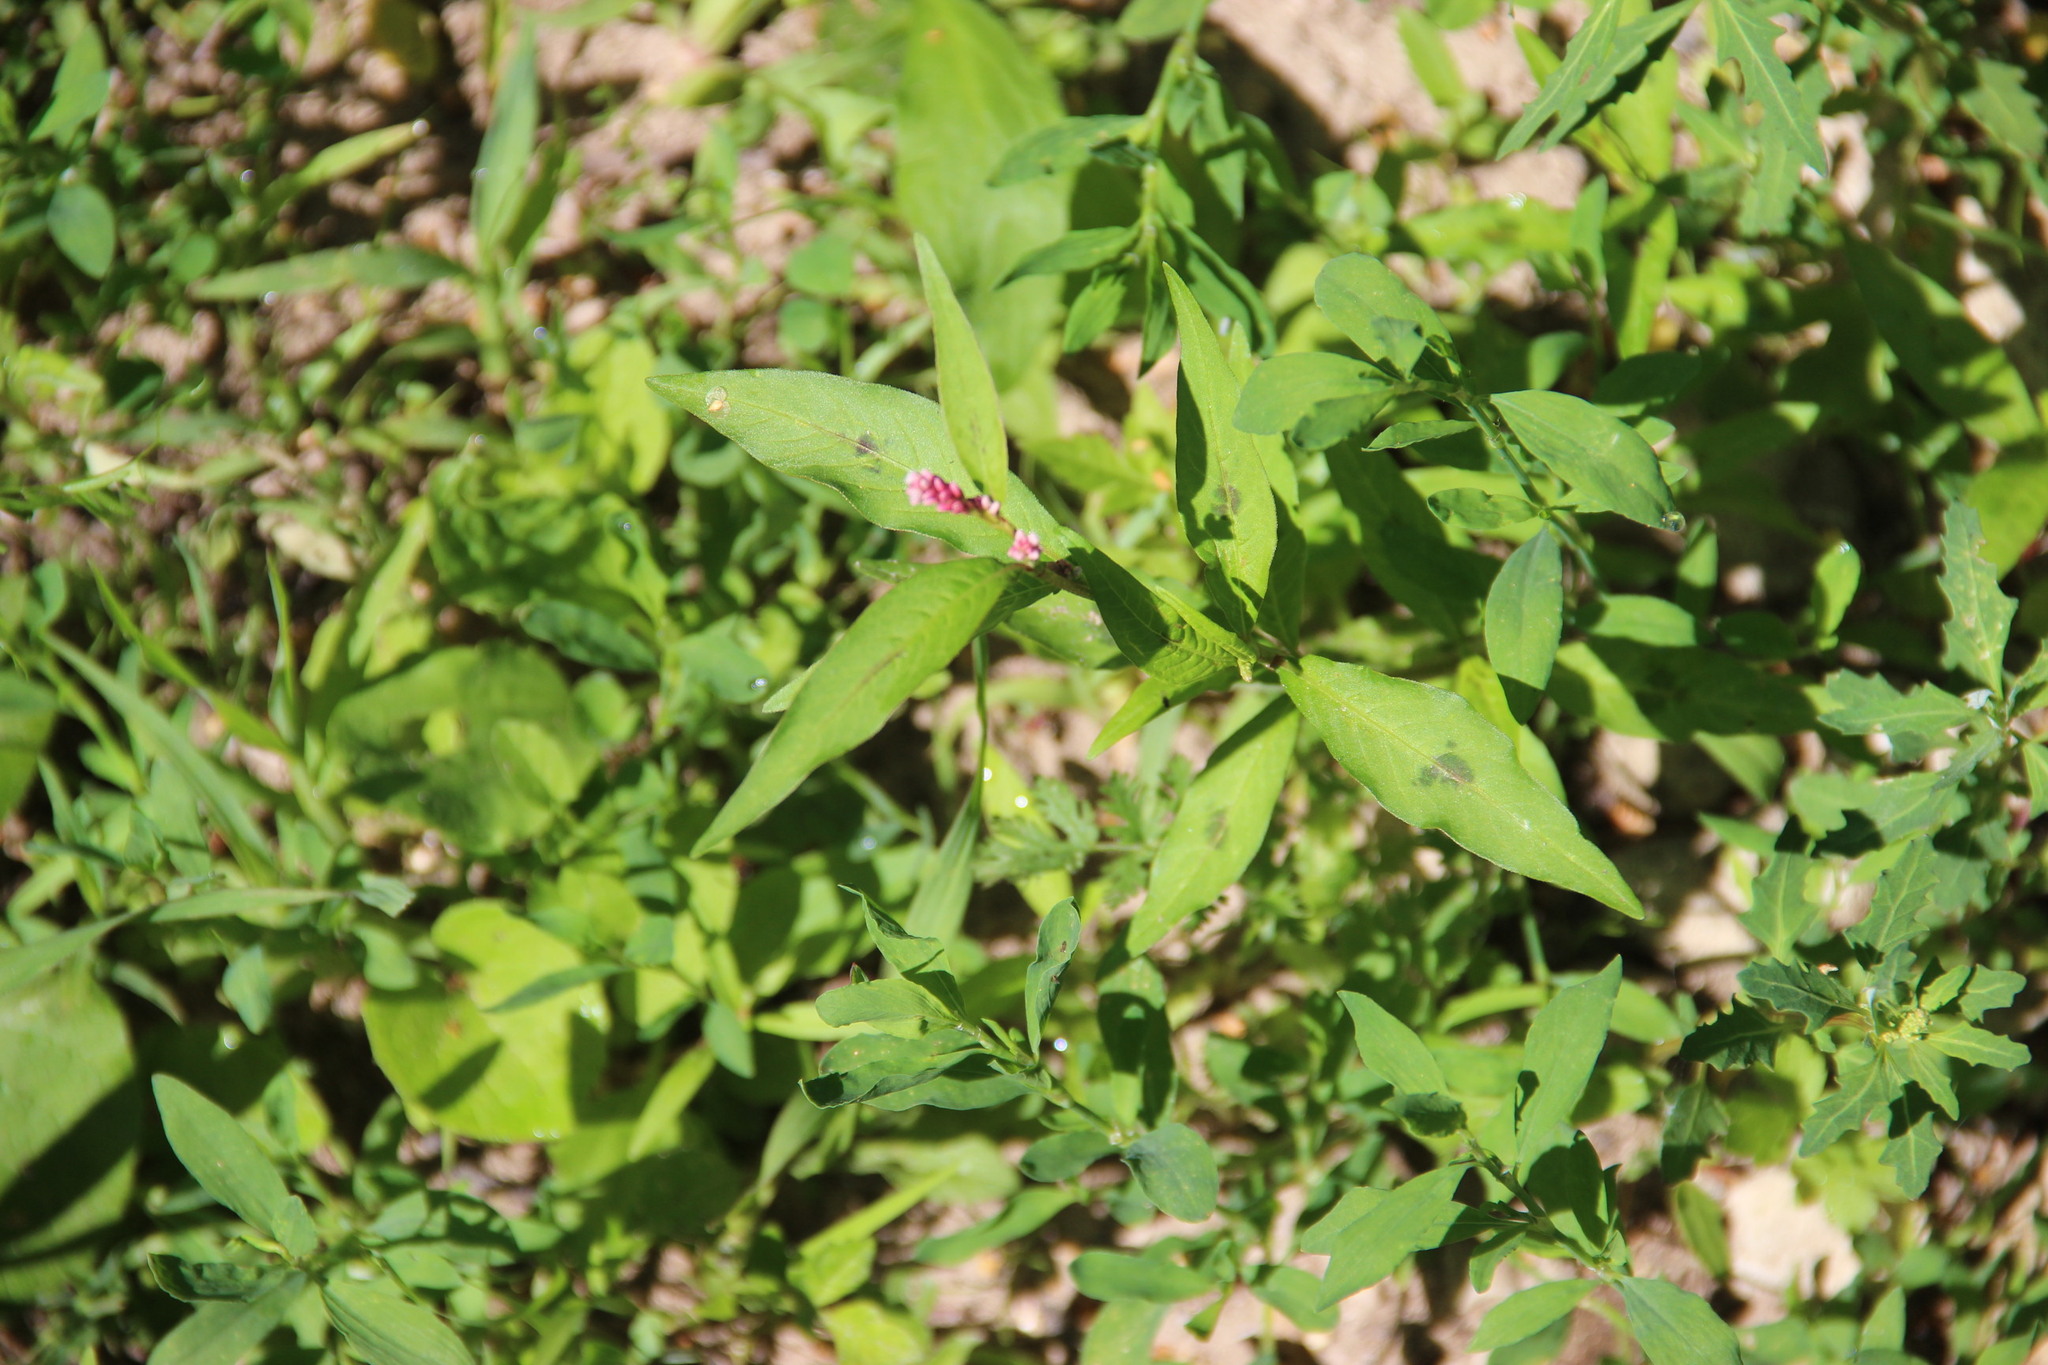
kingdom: Plantae
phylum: Tracheophyta
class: Magnoliopsida
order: Caryophyllales
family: Polygonaceae
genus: Persicaria
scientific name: Persicaria maculosa
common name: Redshank
